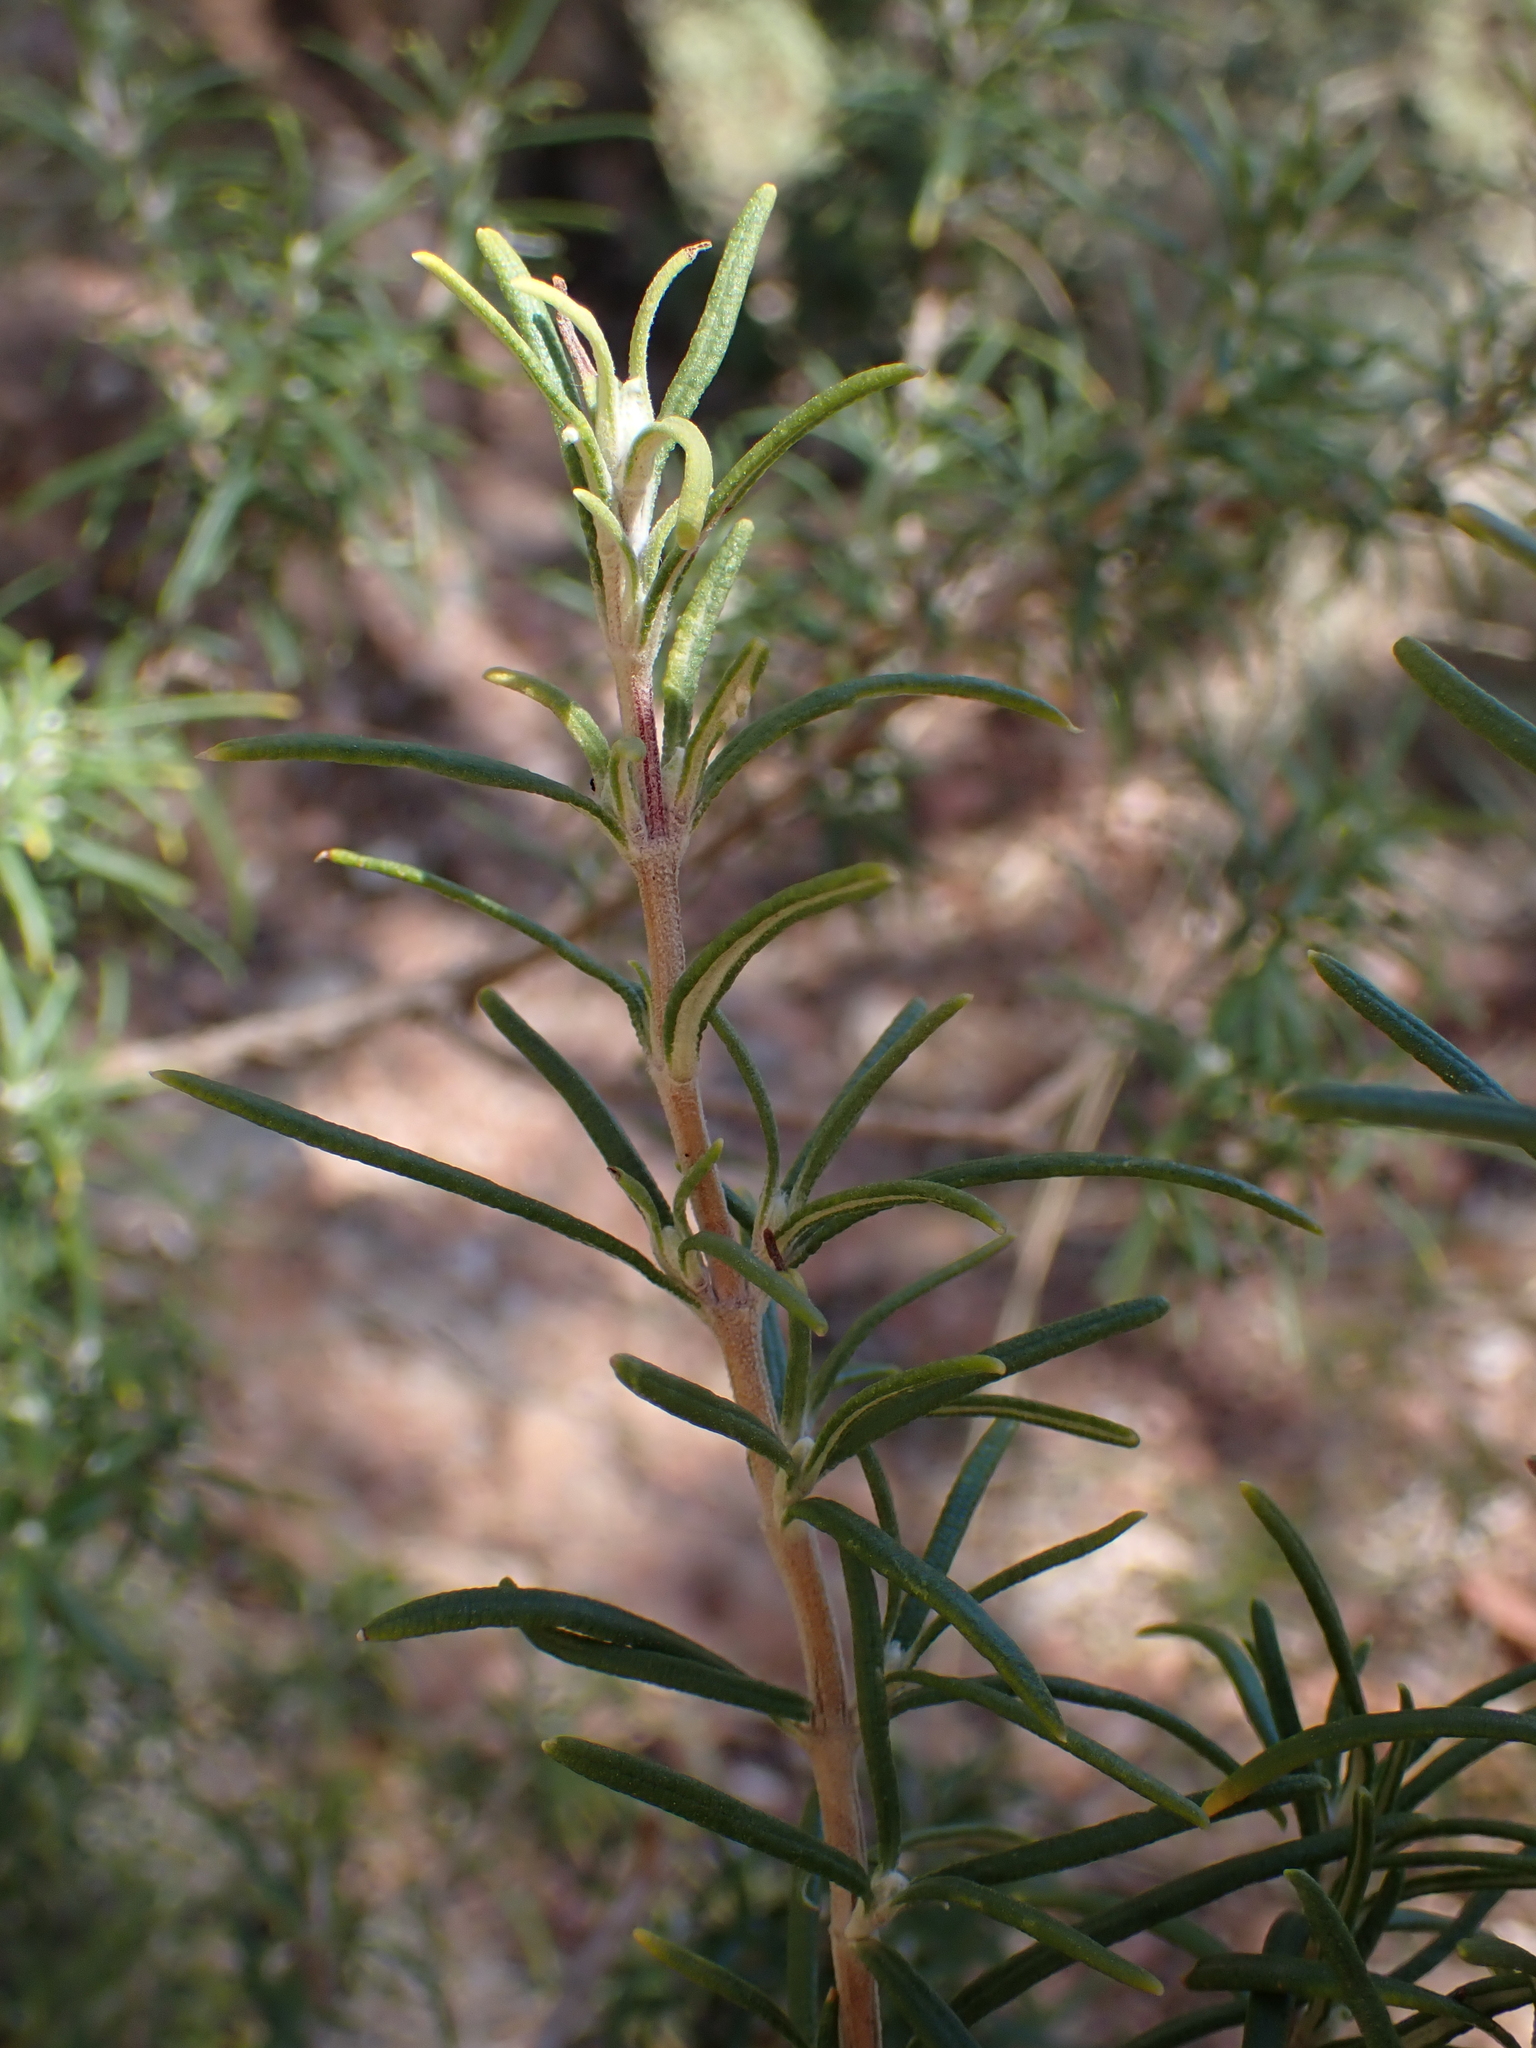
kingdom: Plantae
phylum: Tracheophyta
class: Magnoliopsida
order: Lamiales
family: Lamiaceae
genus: Salvia
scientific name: Salvia rosmarinus
